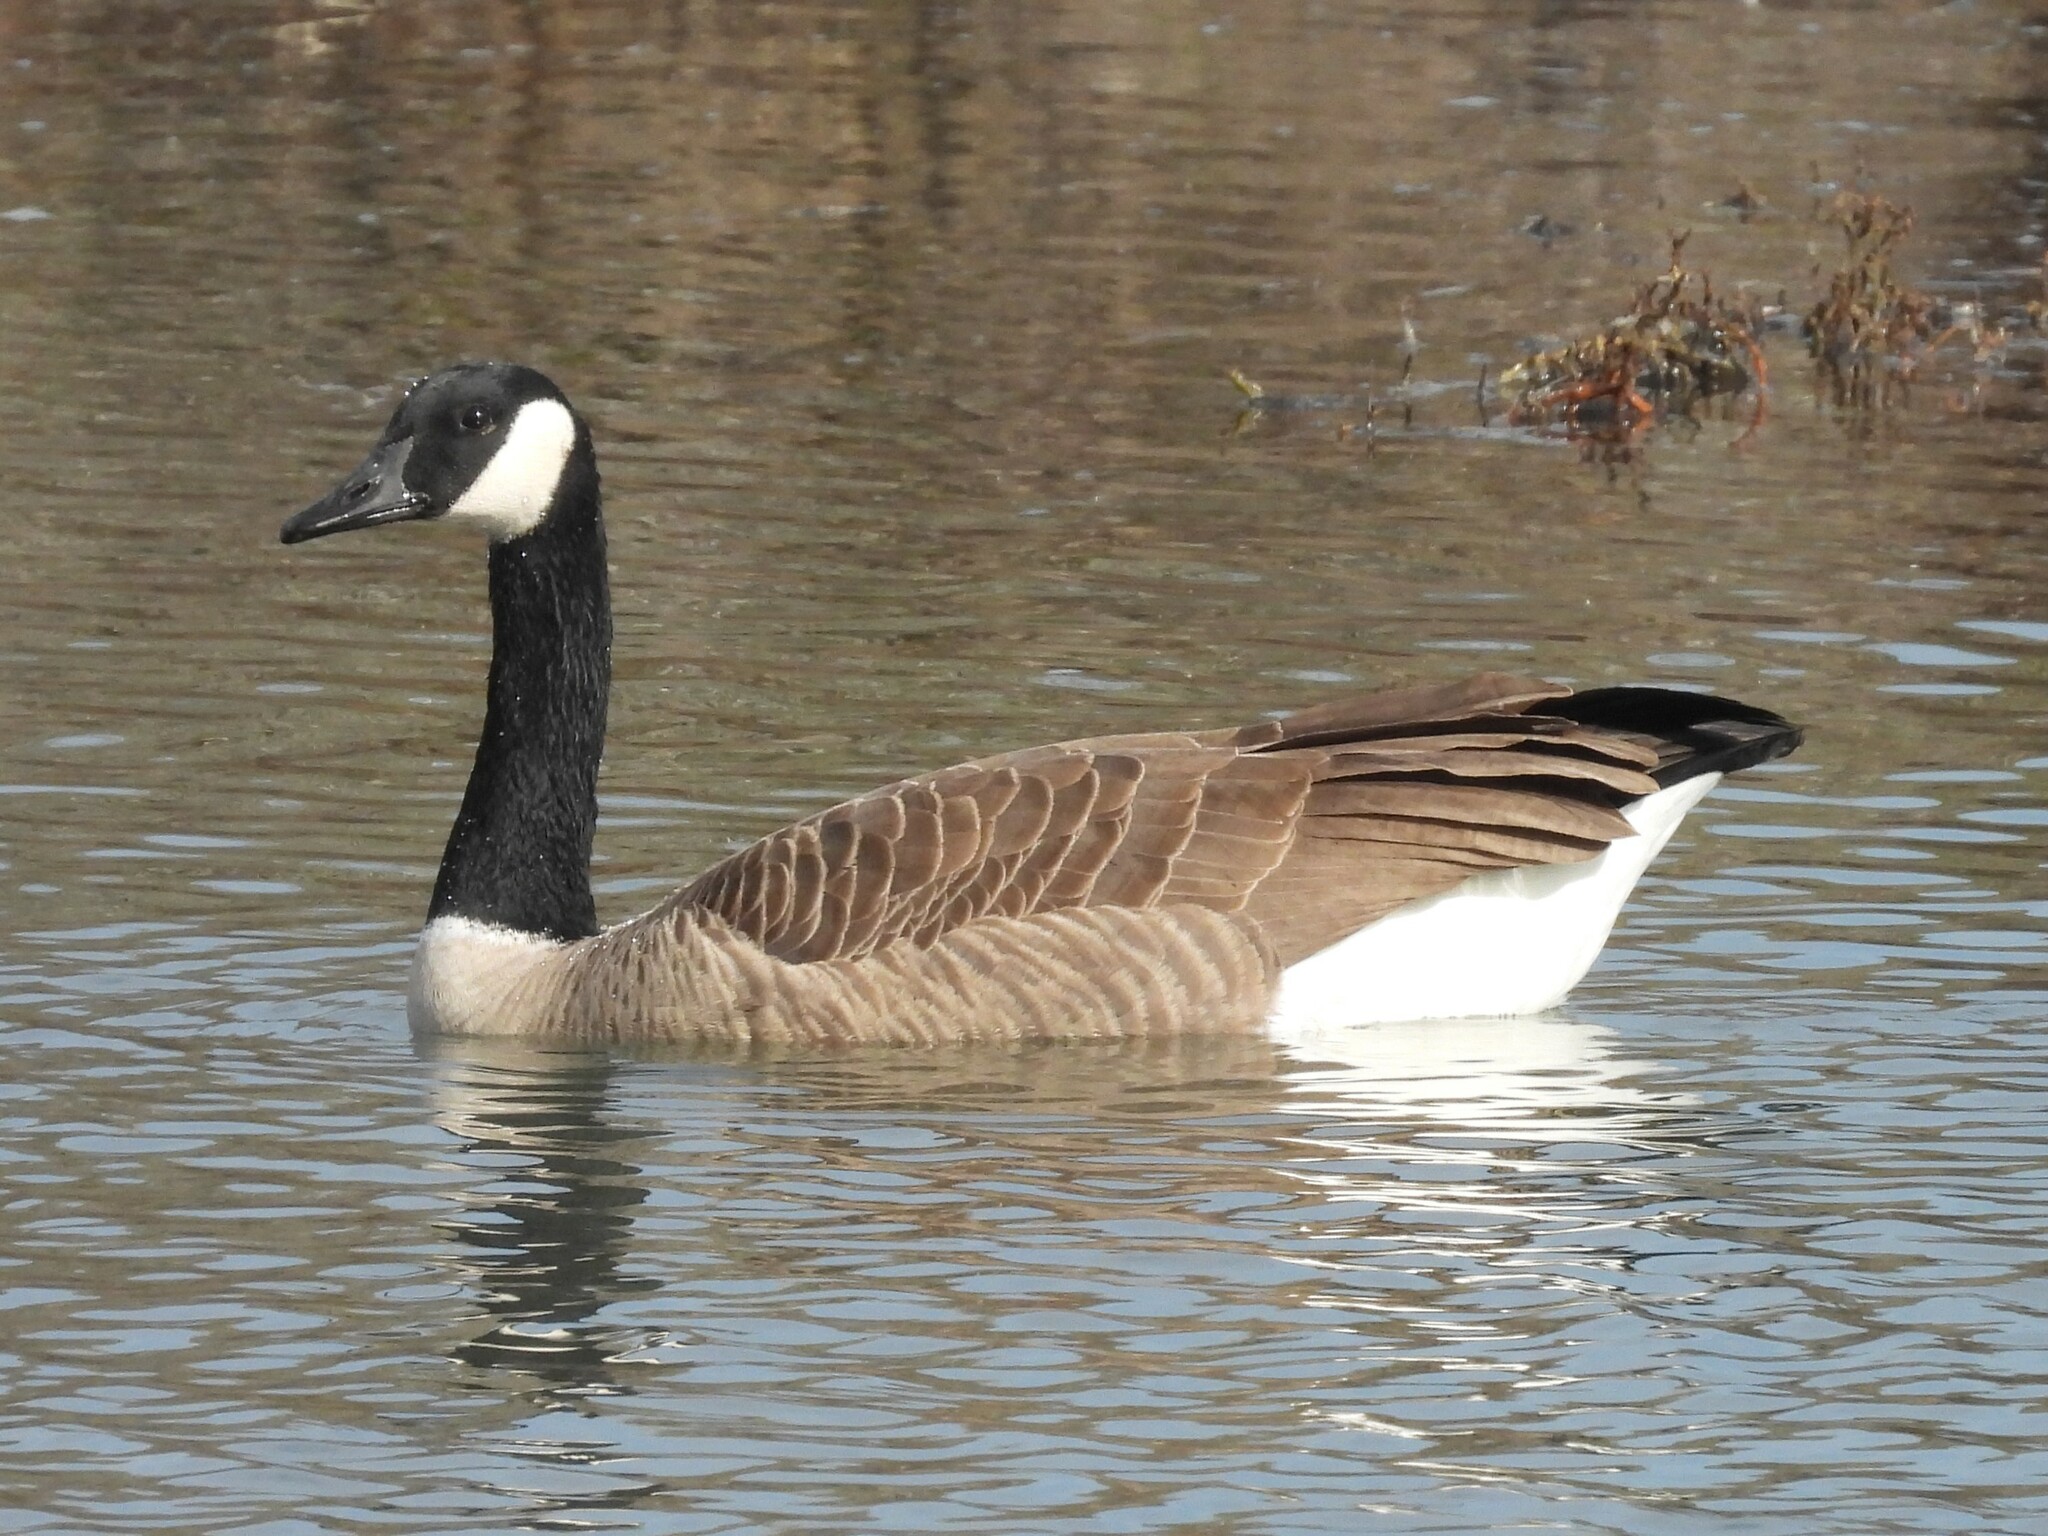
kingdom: Animalia
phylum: Chordata
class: Aves
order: Anseriformes
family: Anatidae
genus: Branta
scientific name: Branta canadensis
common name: Canada goose
